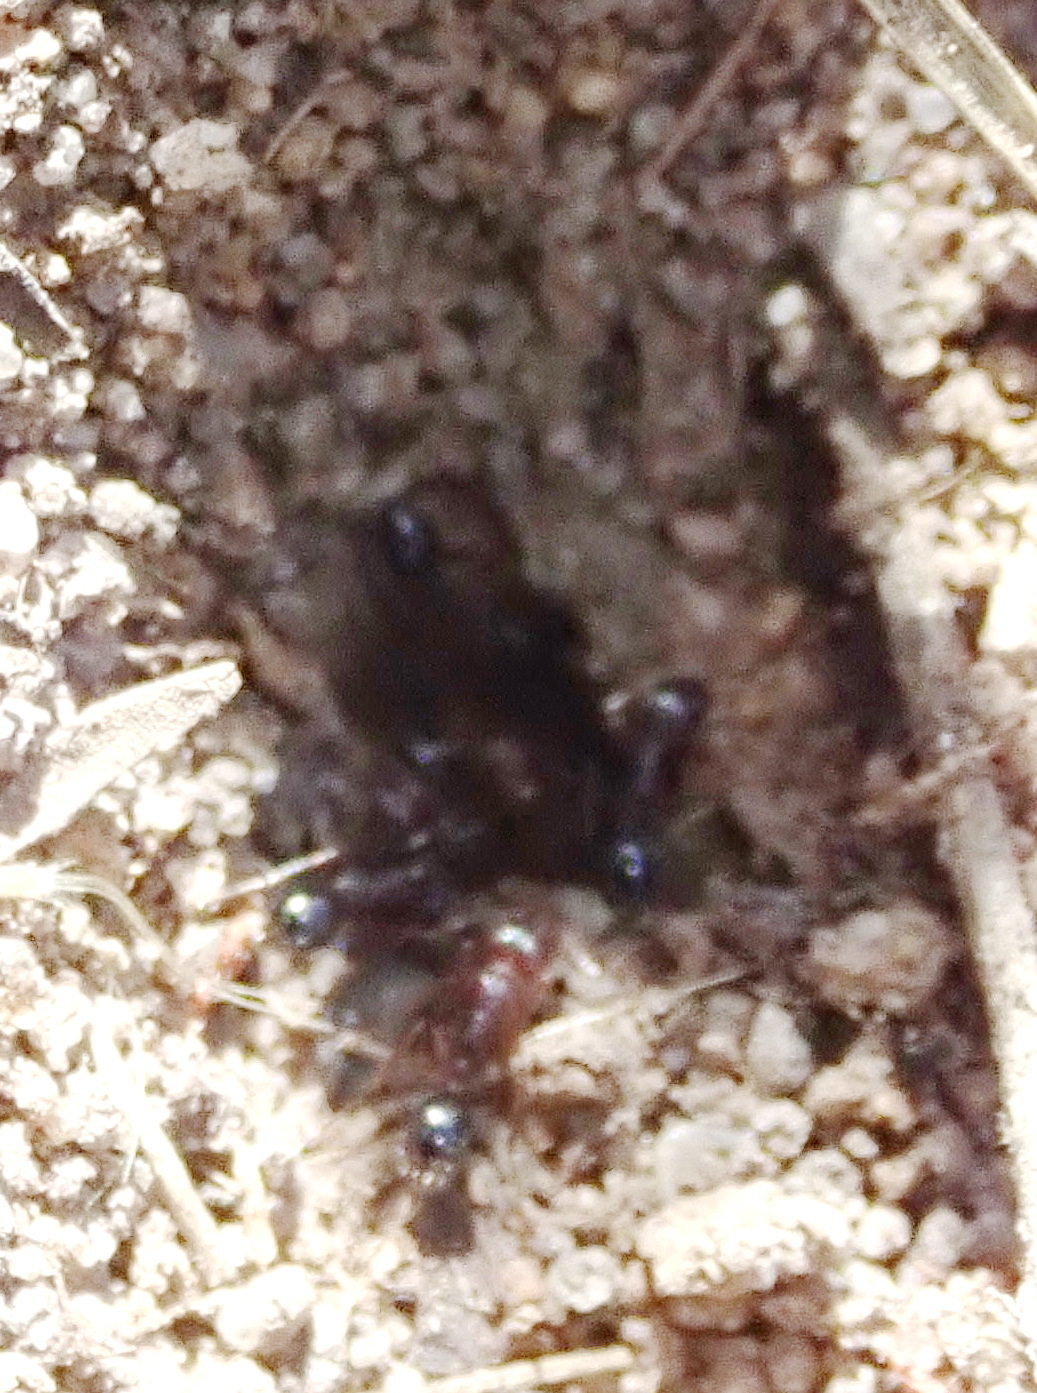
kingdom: Animalia
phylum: Arthropoda
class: Insecta
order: Hymenoptera
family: Formicidae
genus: Tetramorium
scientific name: Tetramorium sericeiventre
